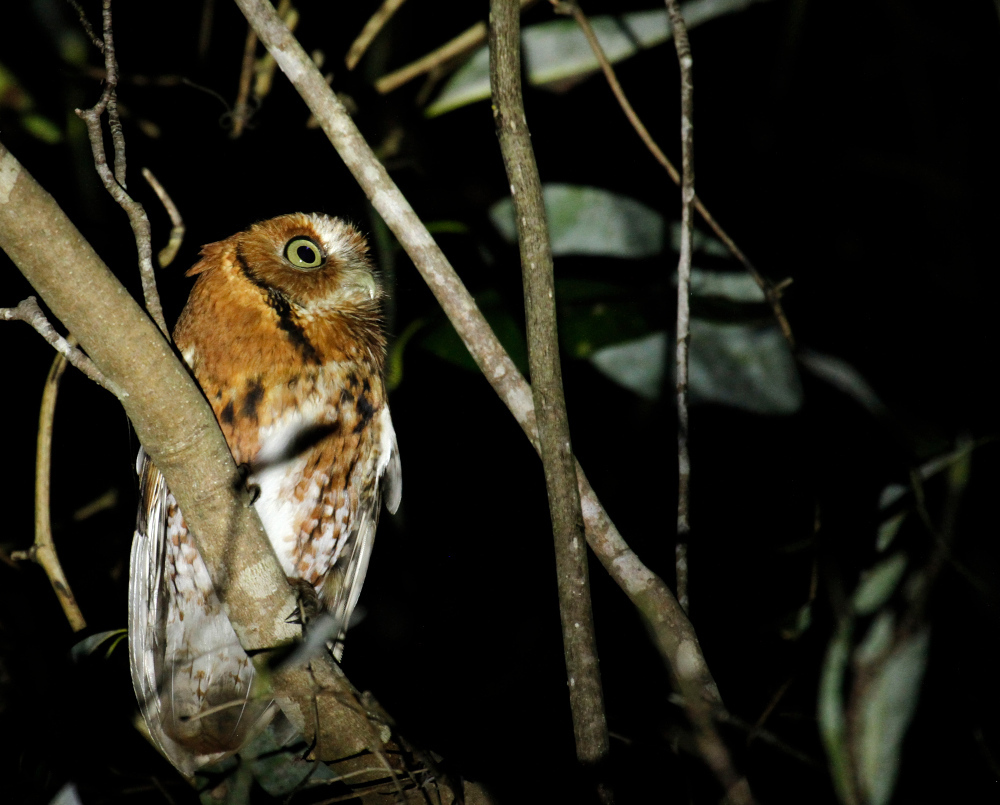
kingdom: Animalia
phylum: Chordata
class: Aves
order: Strigiformes
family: Strigidae
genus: Megascops
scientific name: Megascops asio
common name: Eastern screech-owl
